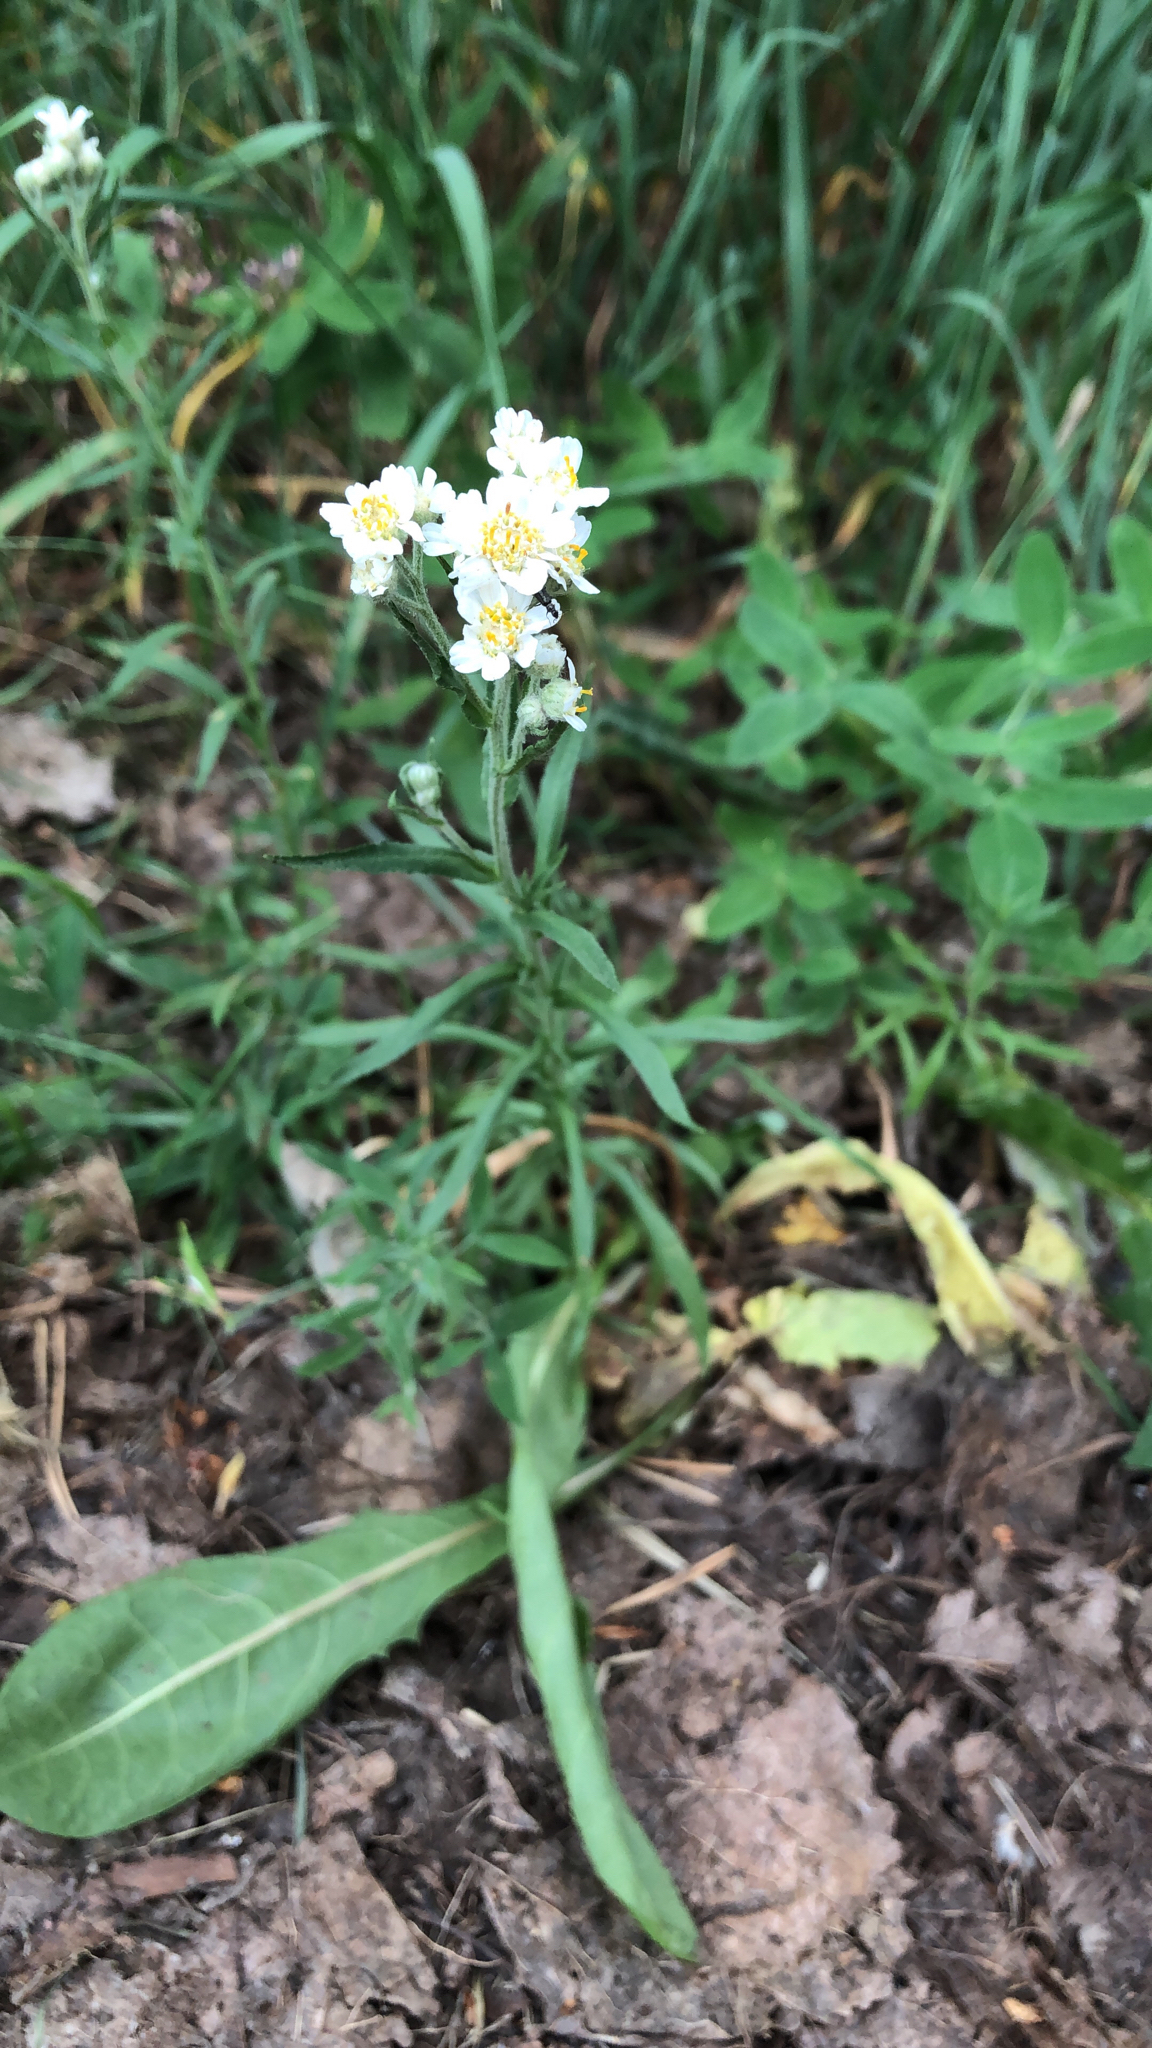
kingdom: Plantae
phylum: Tracheophyta
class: Magnoliopsida
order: Asterales
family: Asteraceae
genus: Achillea
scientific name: Achillea ptarmica
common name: Sneezeweed
